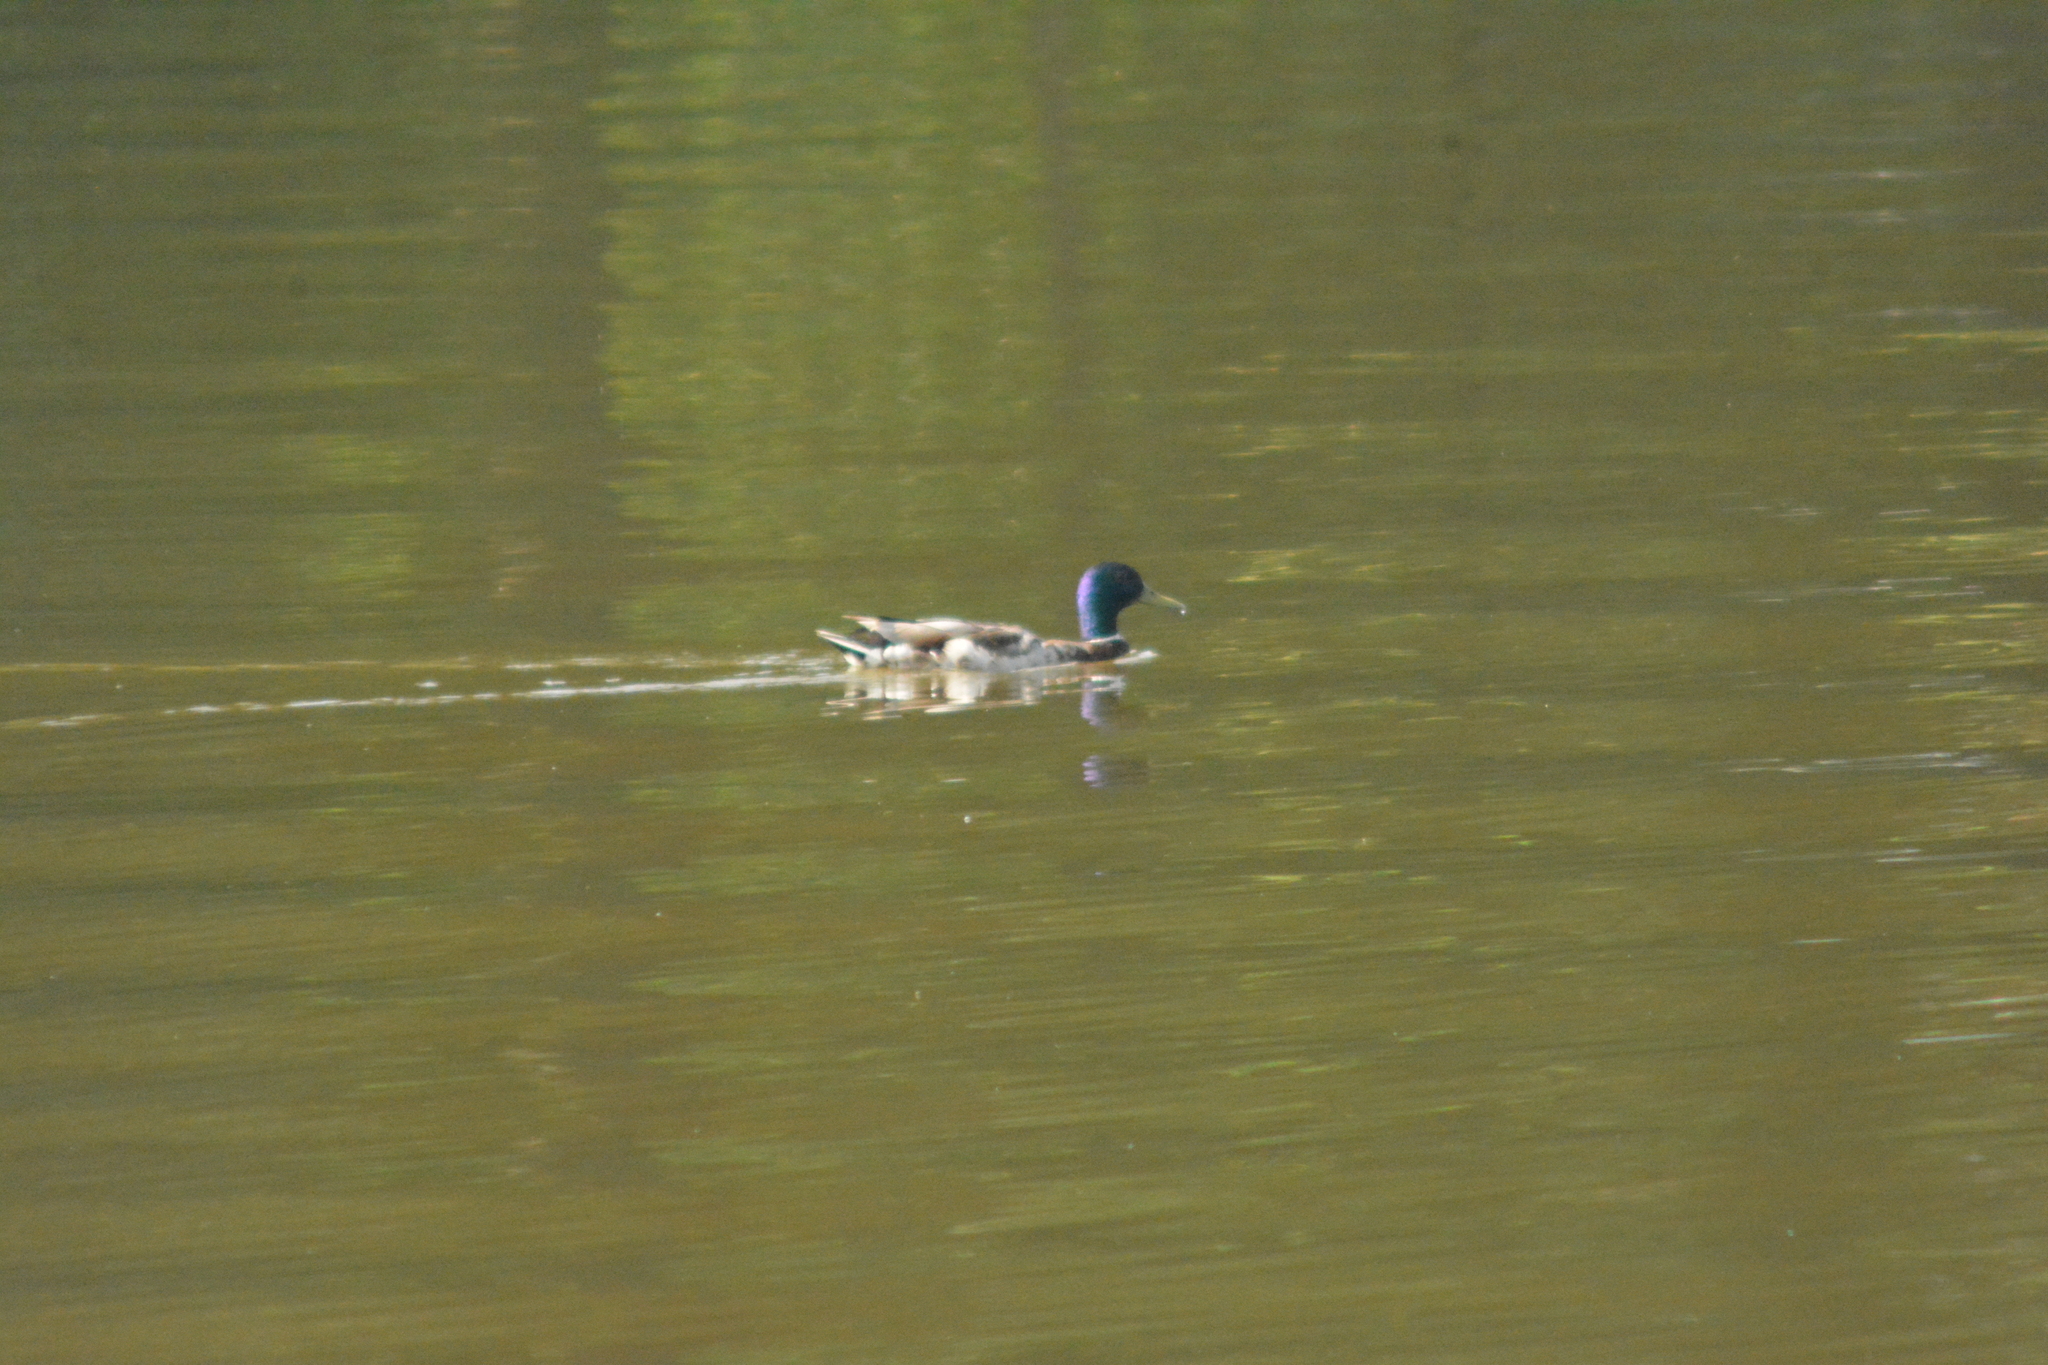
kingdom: Animalia
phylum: Chordata
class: Aves
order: Anseriformes
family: Anatidae
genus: Anas
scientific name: Anas platyrhynchos
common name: Mallard
